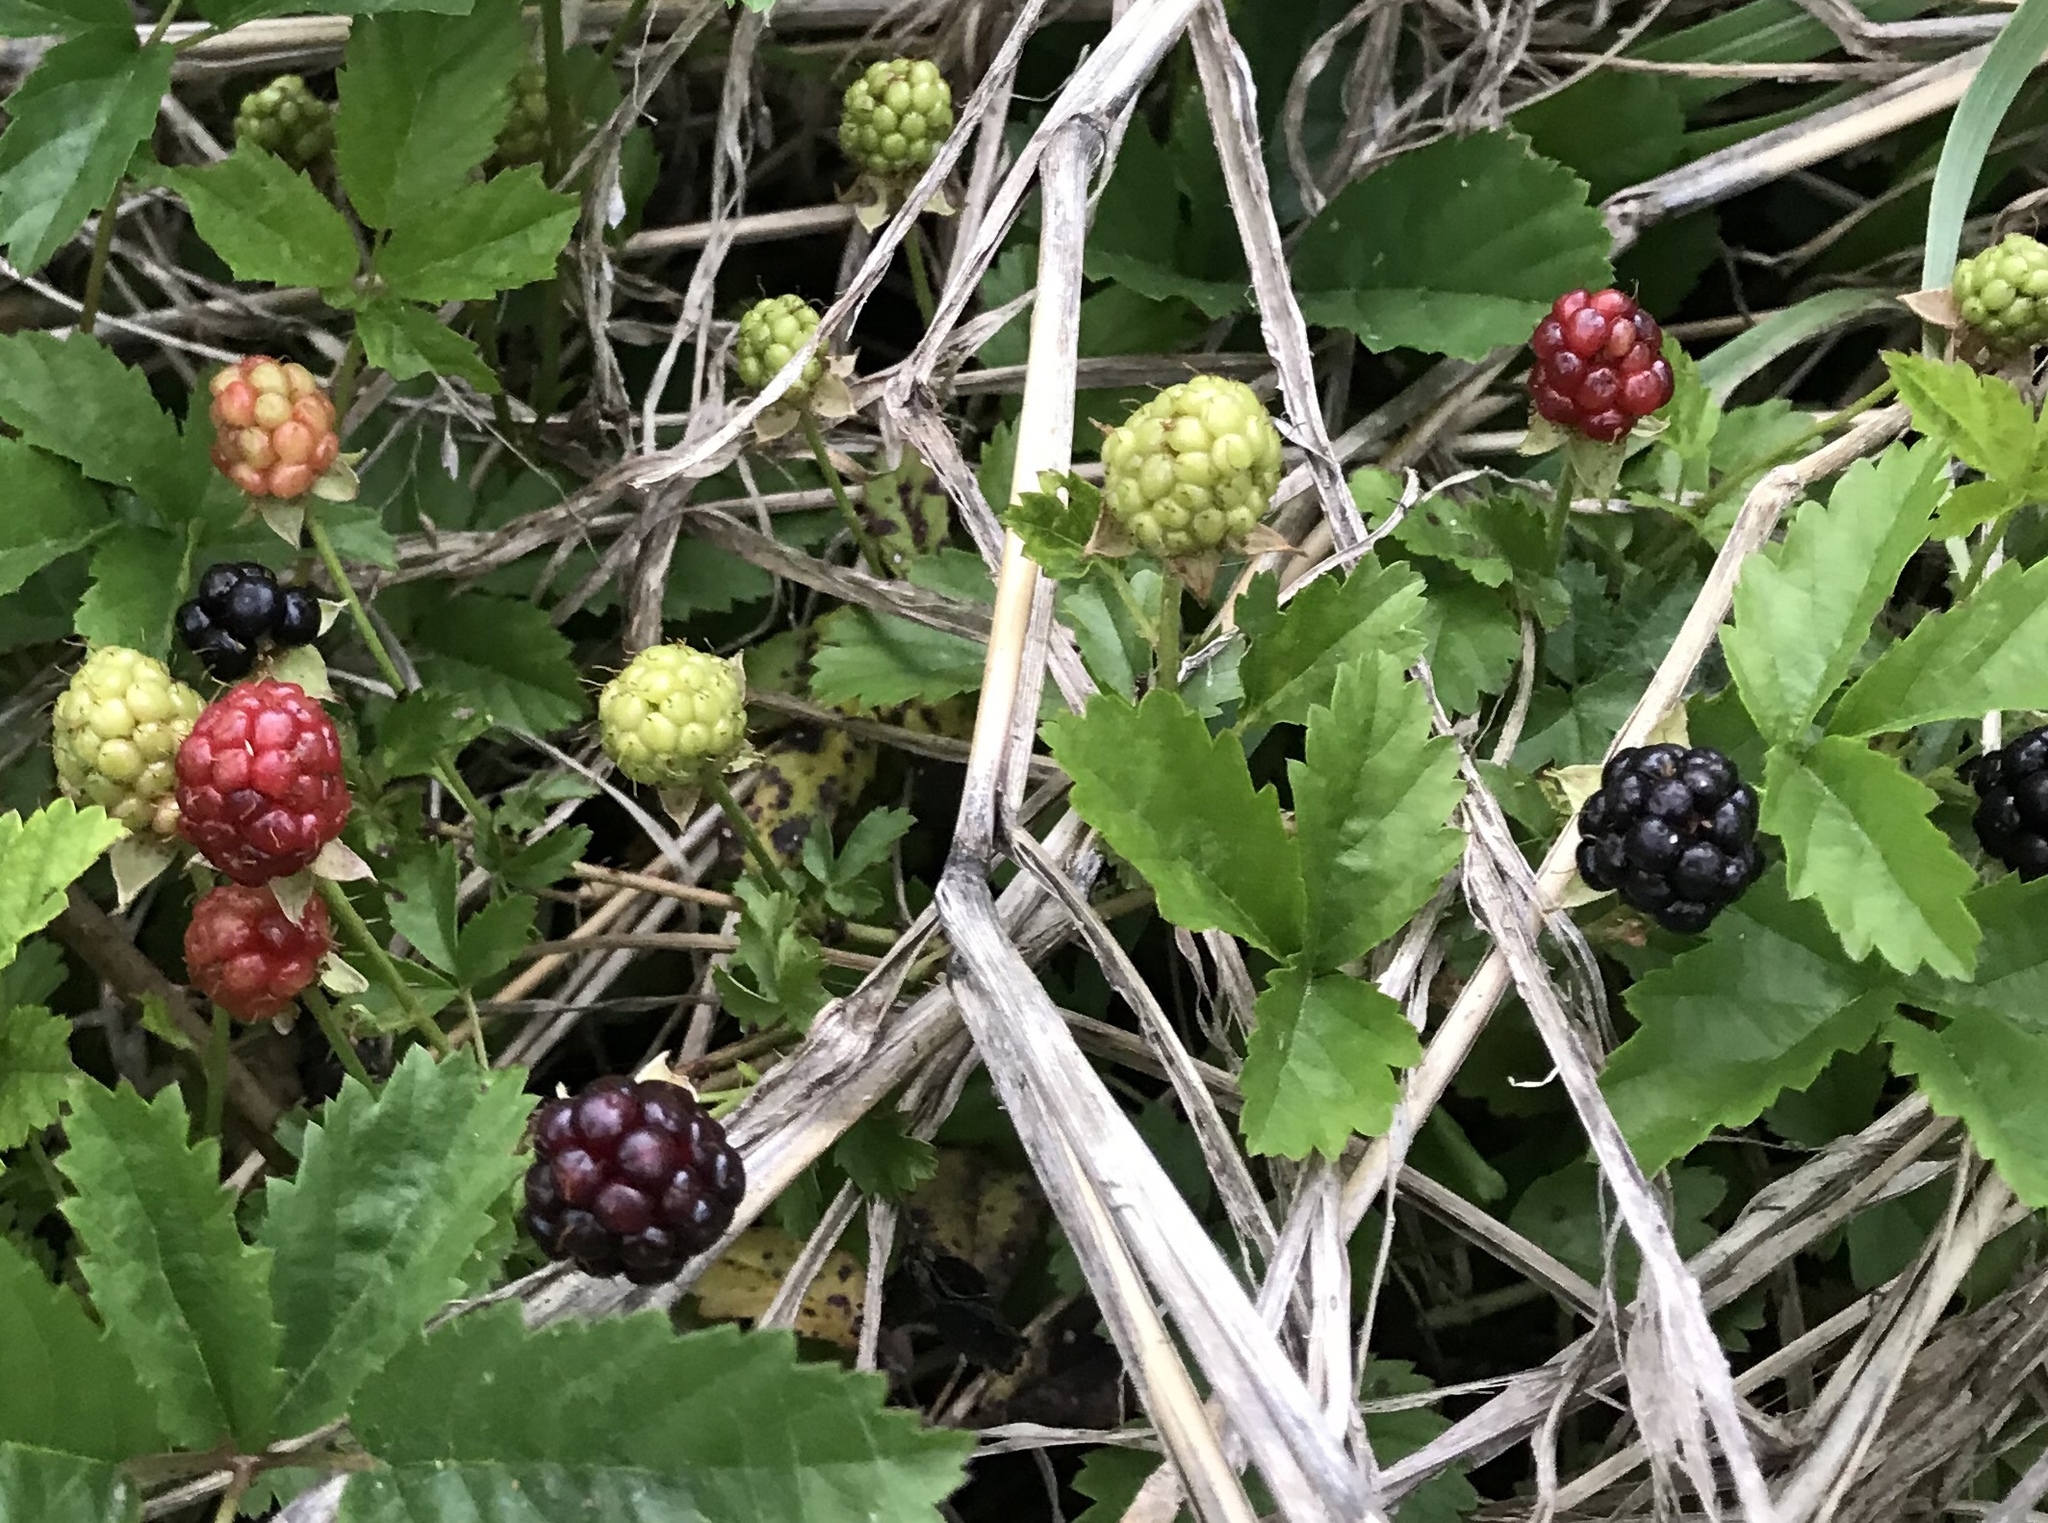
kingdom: Plantae
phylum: Tracheophyta
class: Magnoliopsida
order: Rosales
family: Rosaceae
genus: Rubus
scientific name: Rubus trivialis
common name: Southern dewberry
